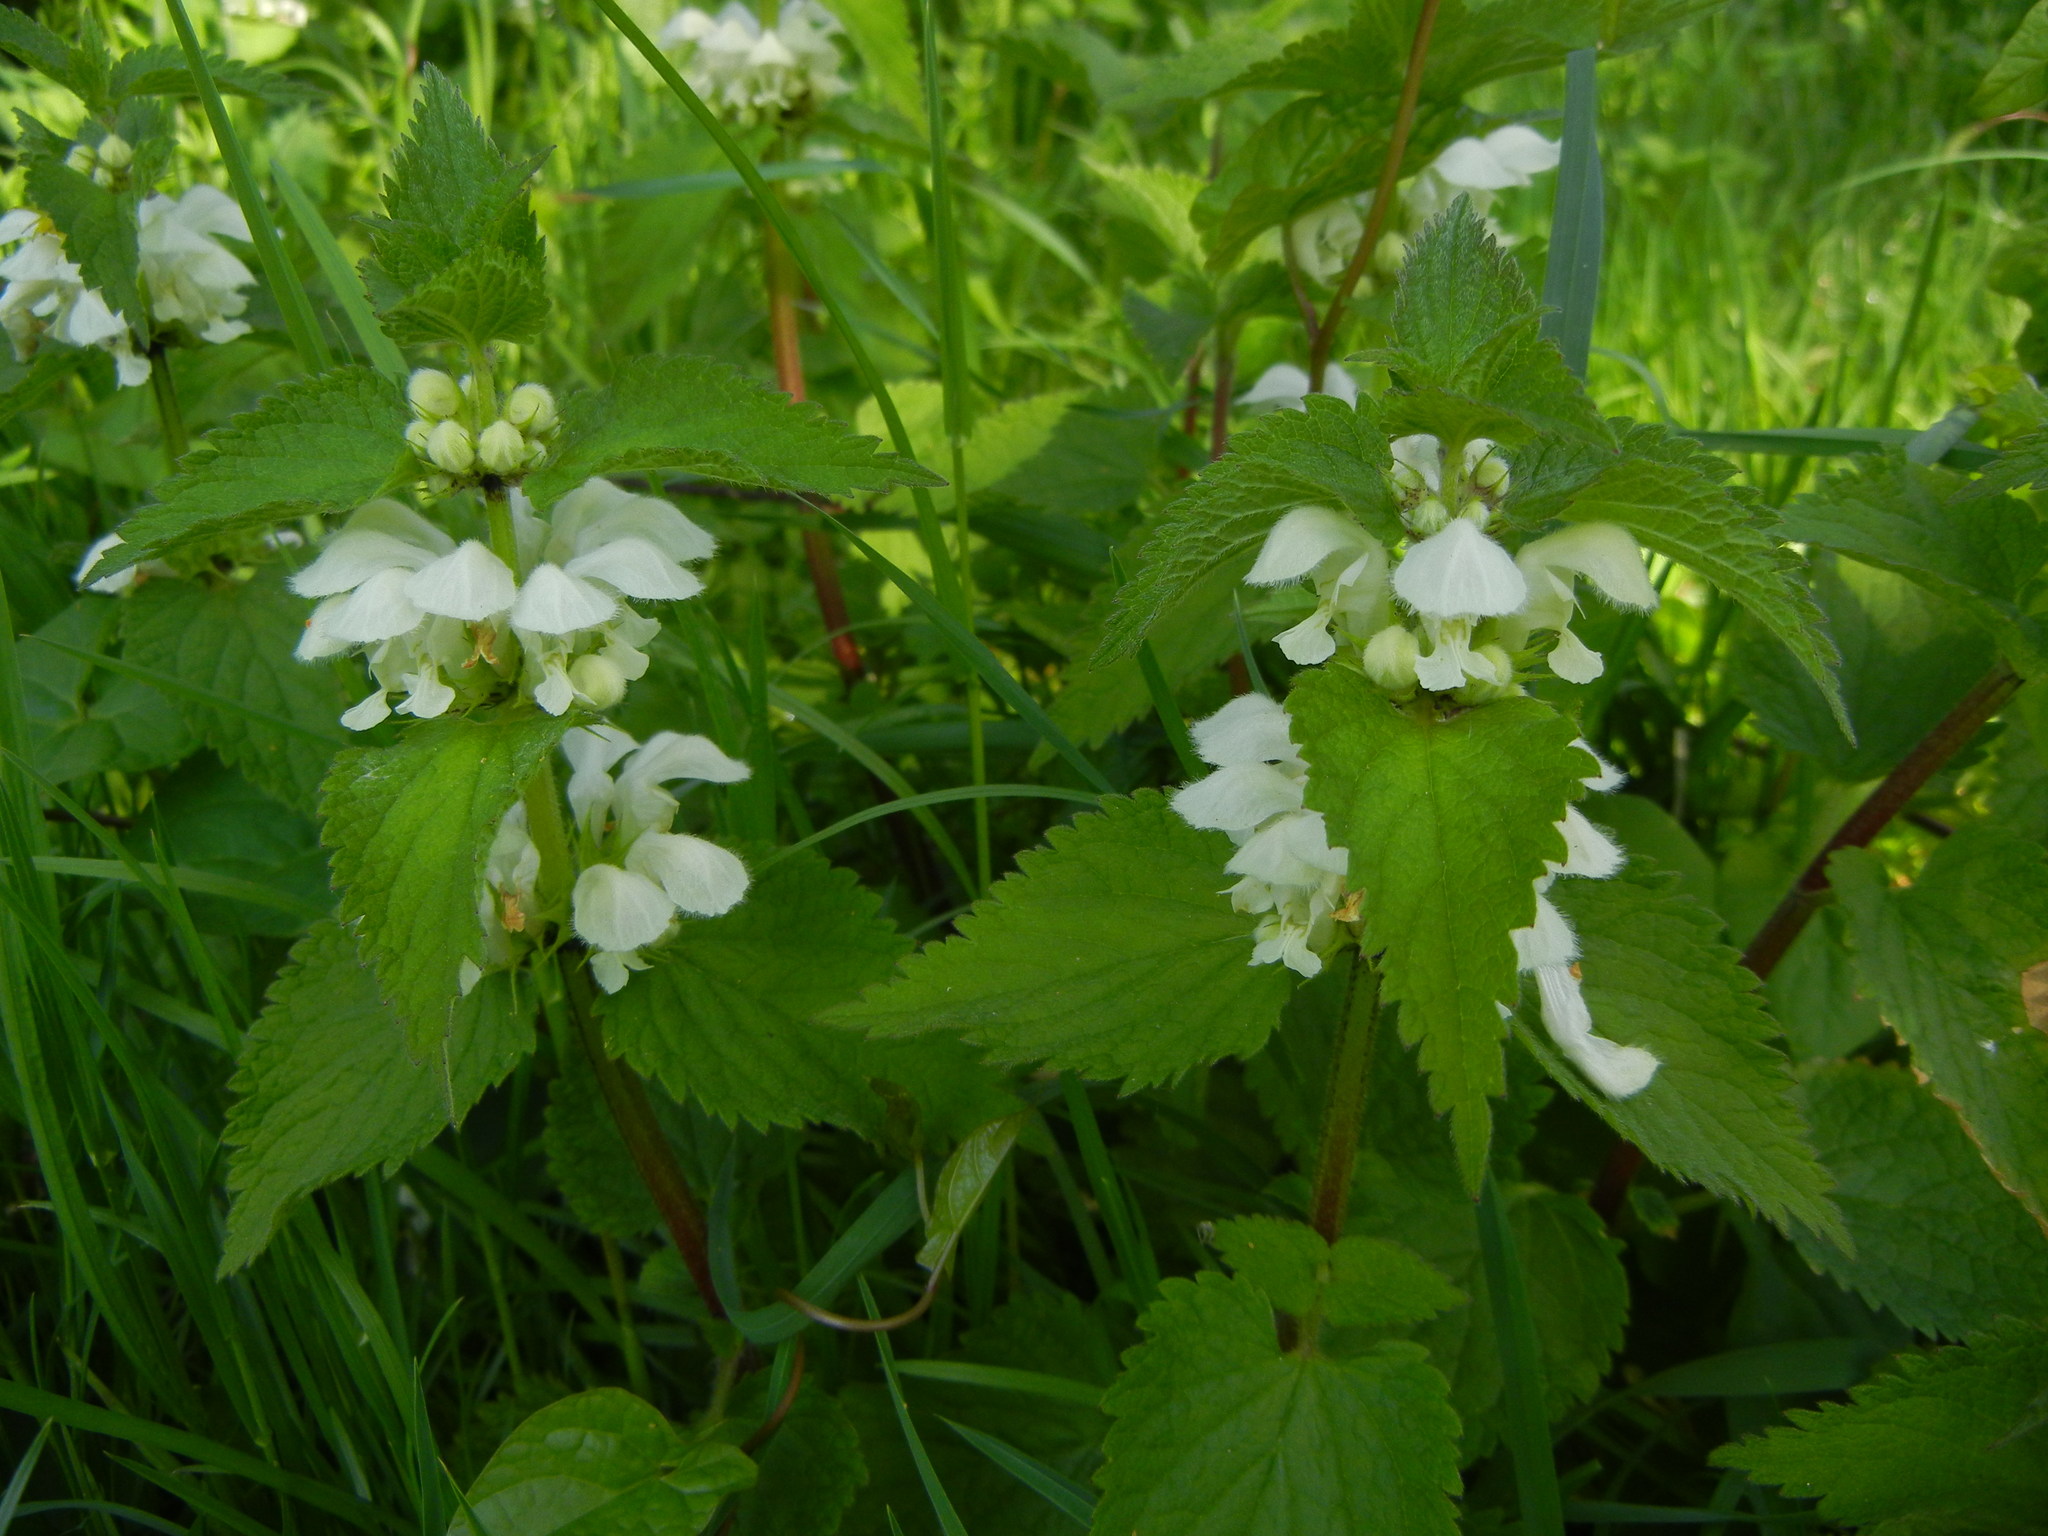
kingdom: Plantae
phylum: Tracheophyta
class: Magnoliopsida
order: Lamiales
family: Lamiaceae
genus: Lamium
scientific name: Lamium album
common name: White dead-nettle
